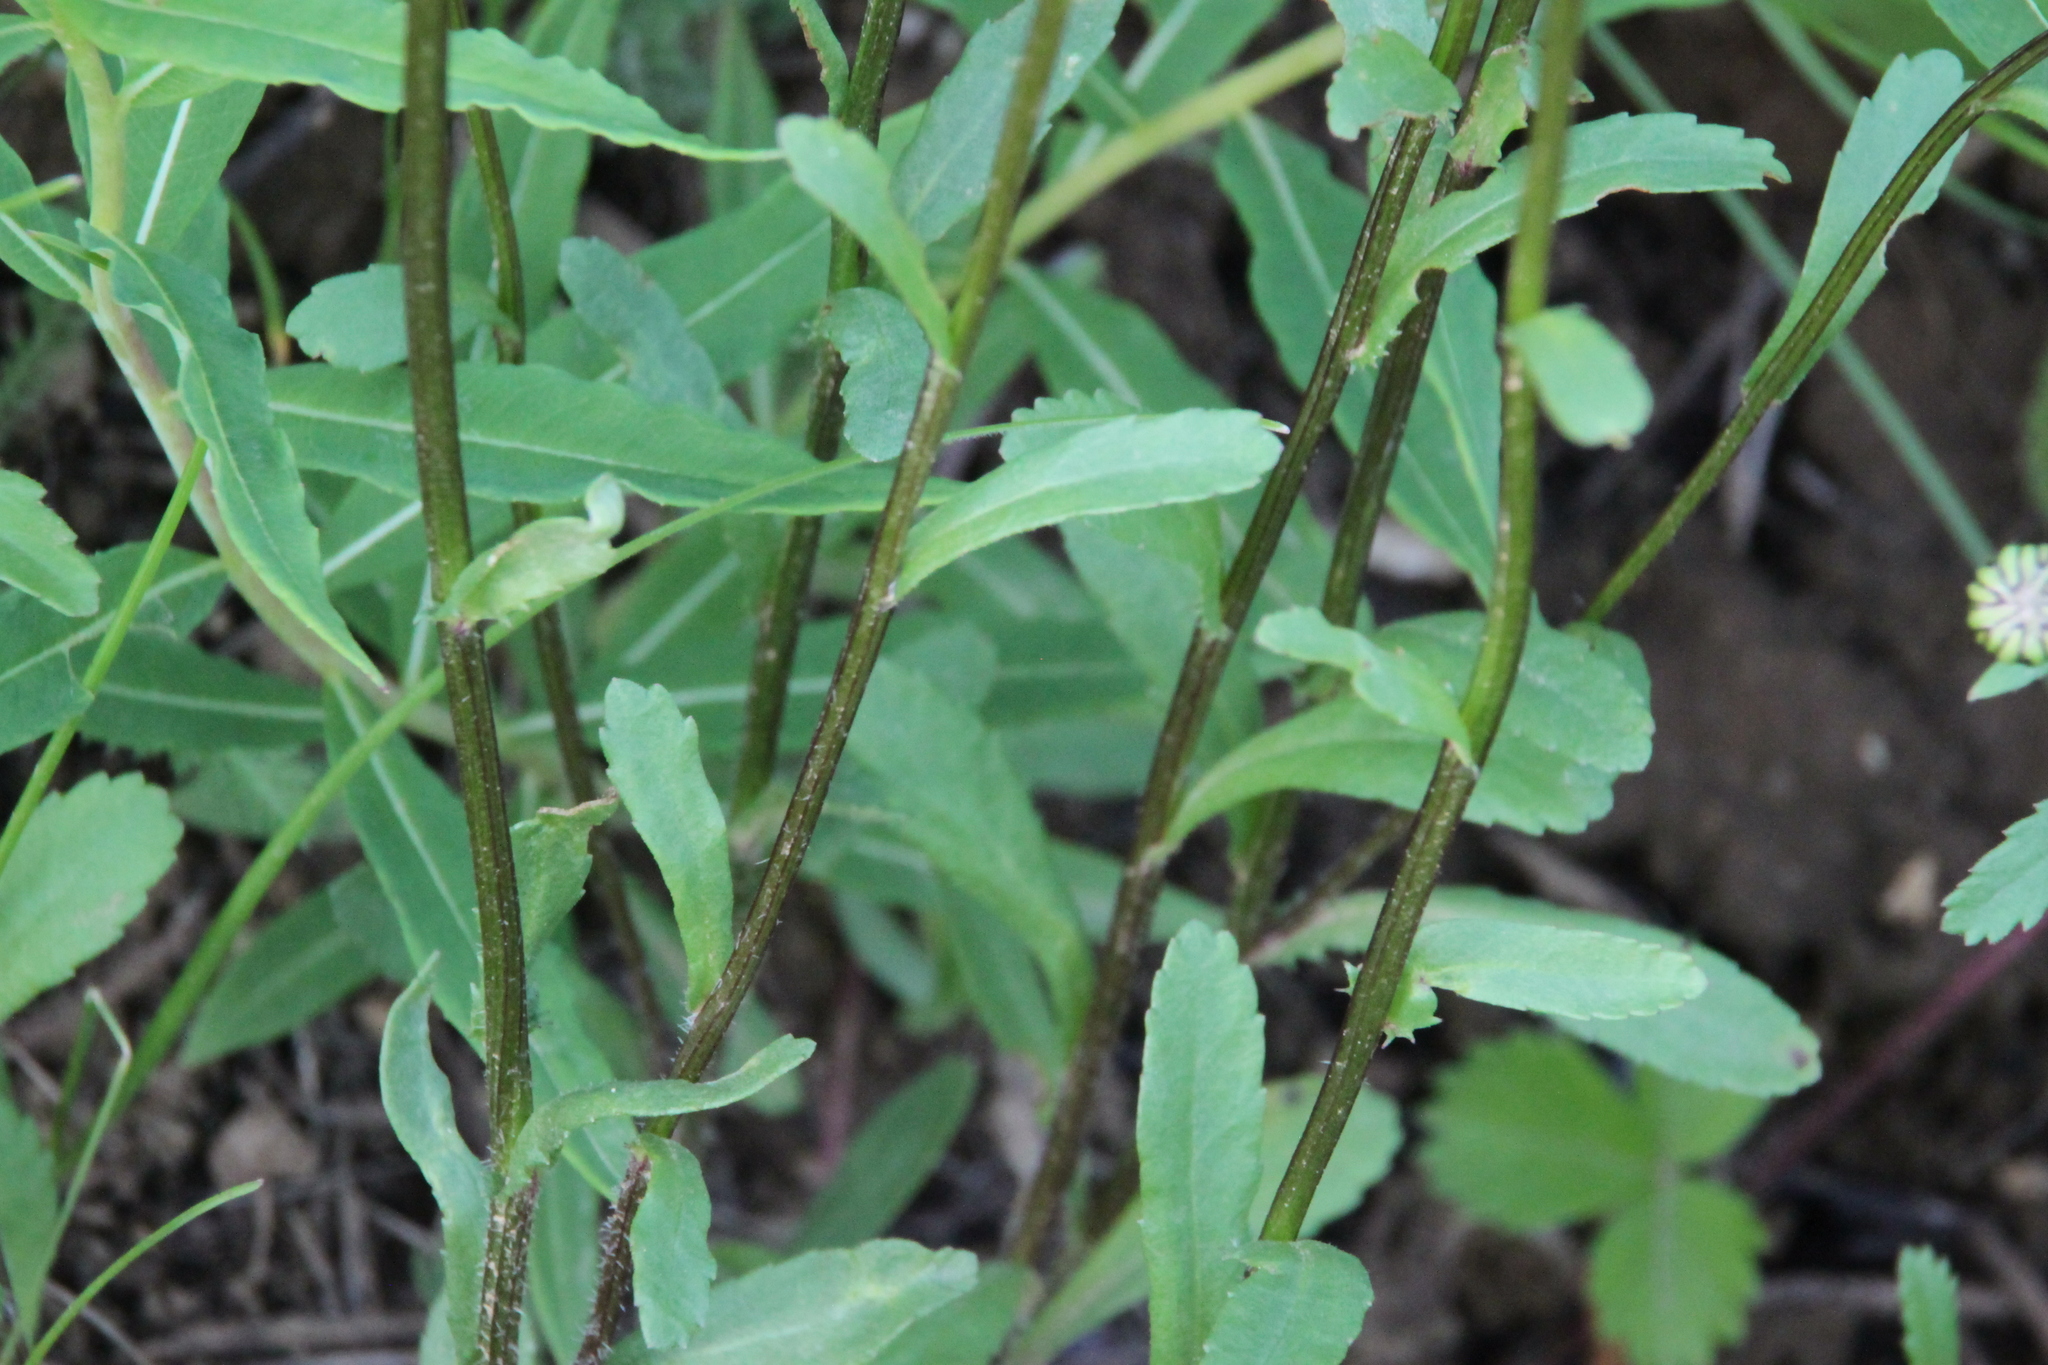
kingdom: Plantae
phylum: Tracheophyta
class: Magnoliopsida
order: Asterales
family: Asteraceae
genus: Leucanthemum
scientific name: Leucanthemum vulgare
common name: Oxeye daisy
